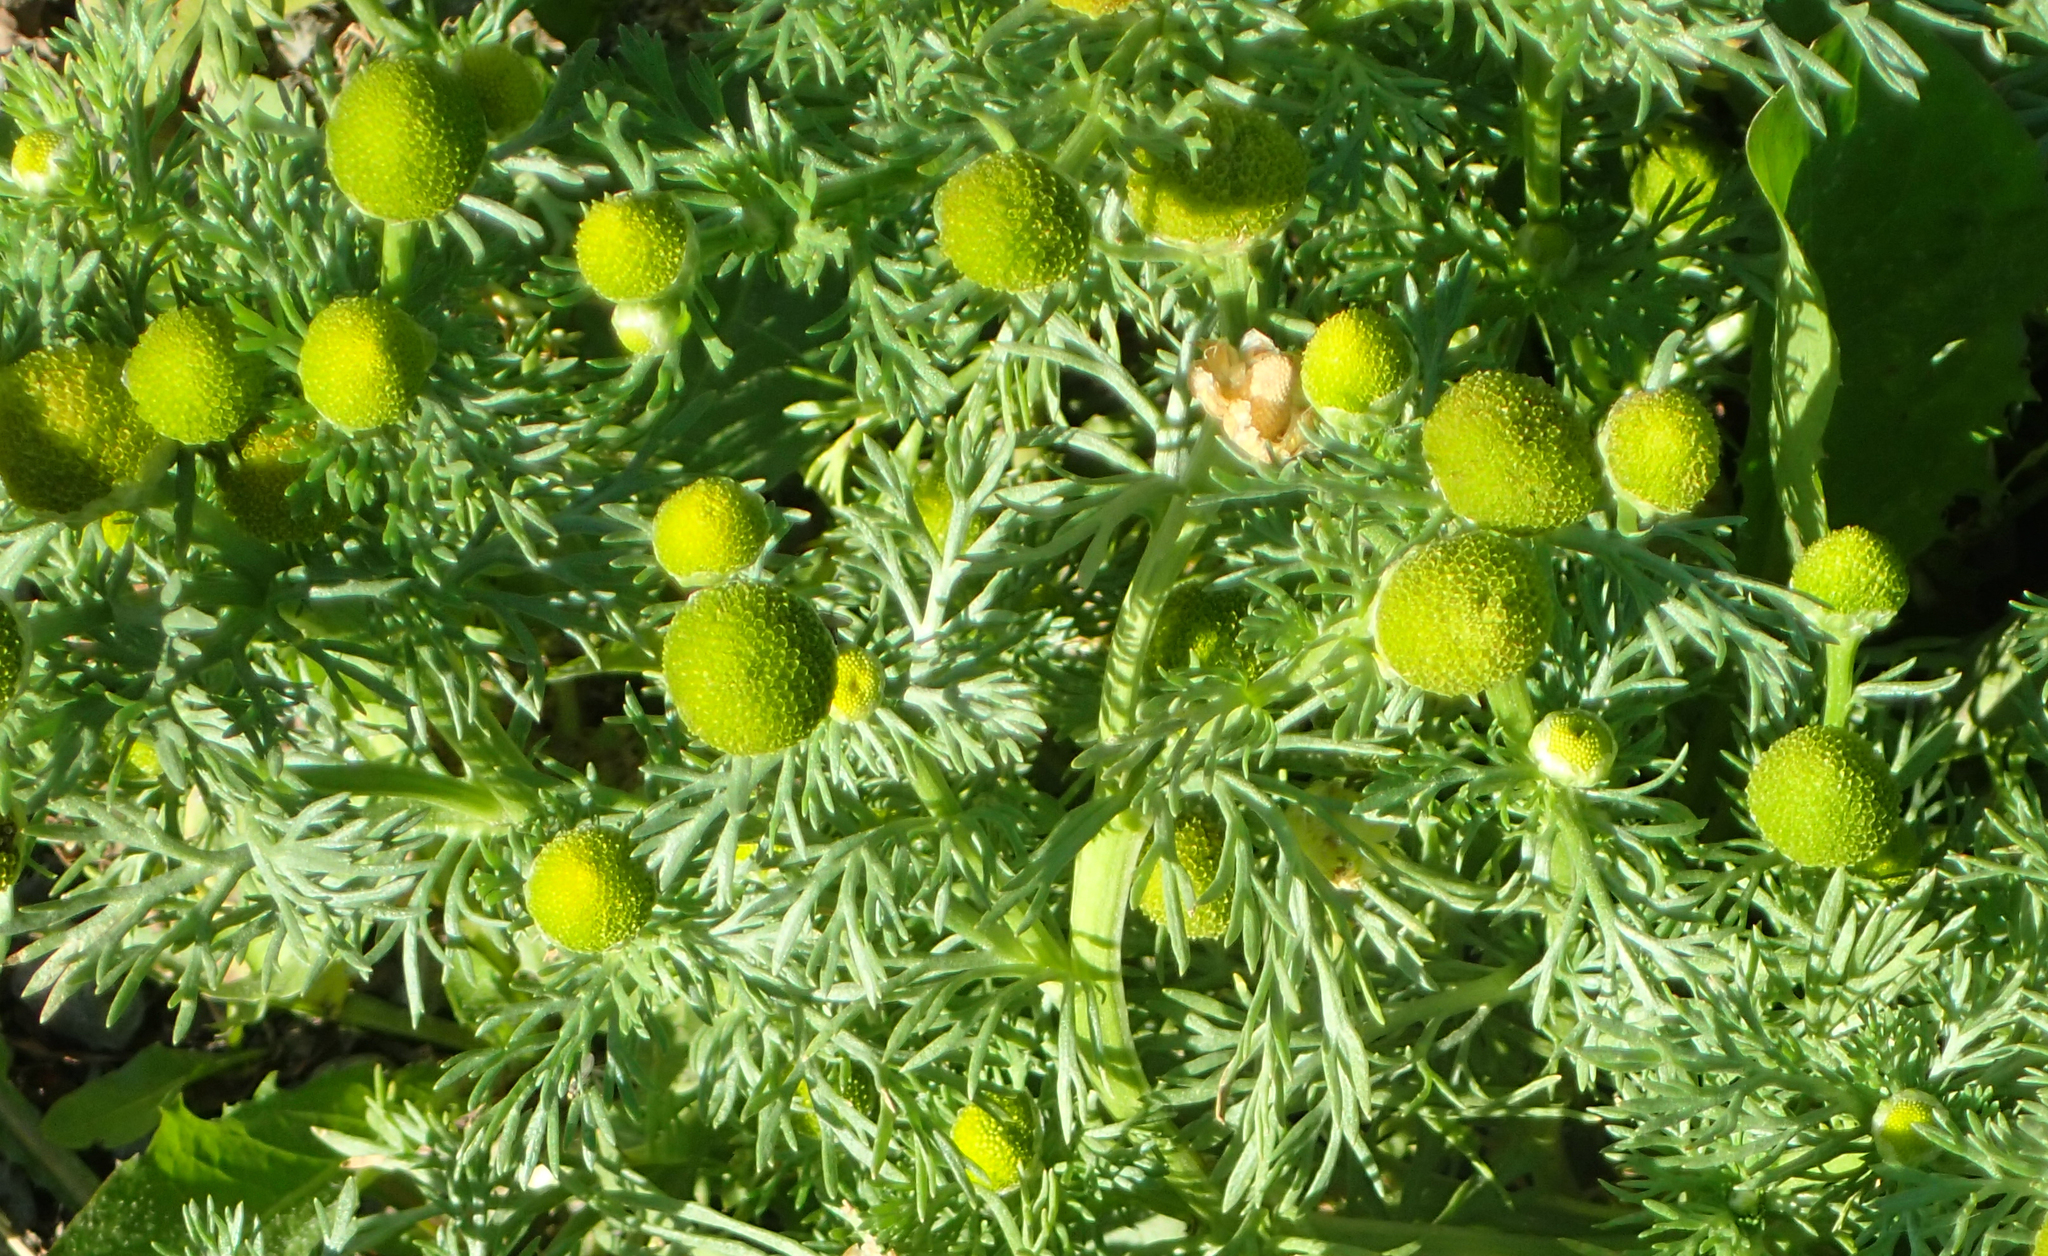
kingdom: Plantae
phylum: Tracheophyta
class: Magnoliopsida
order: Asterales
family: Asteraceae
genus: Matricaria
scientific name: Matricaria discoidea
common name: Disc mayweed
